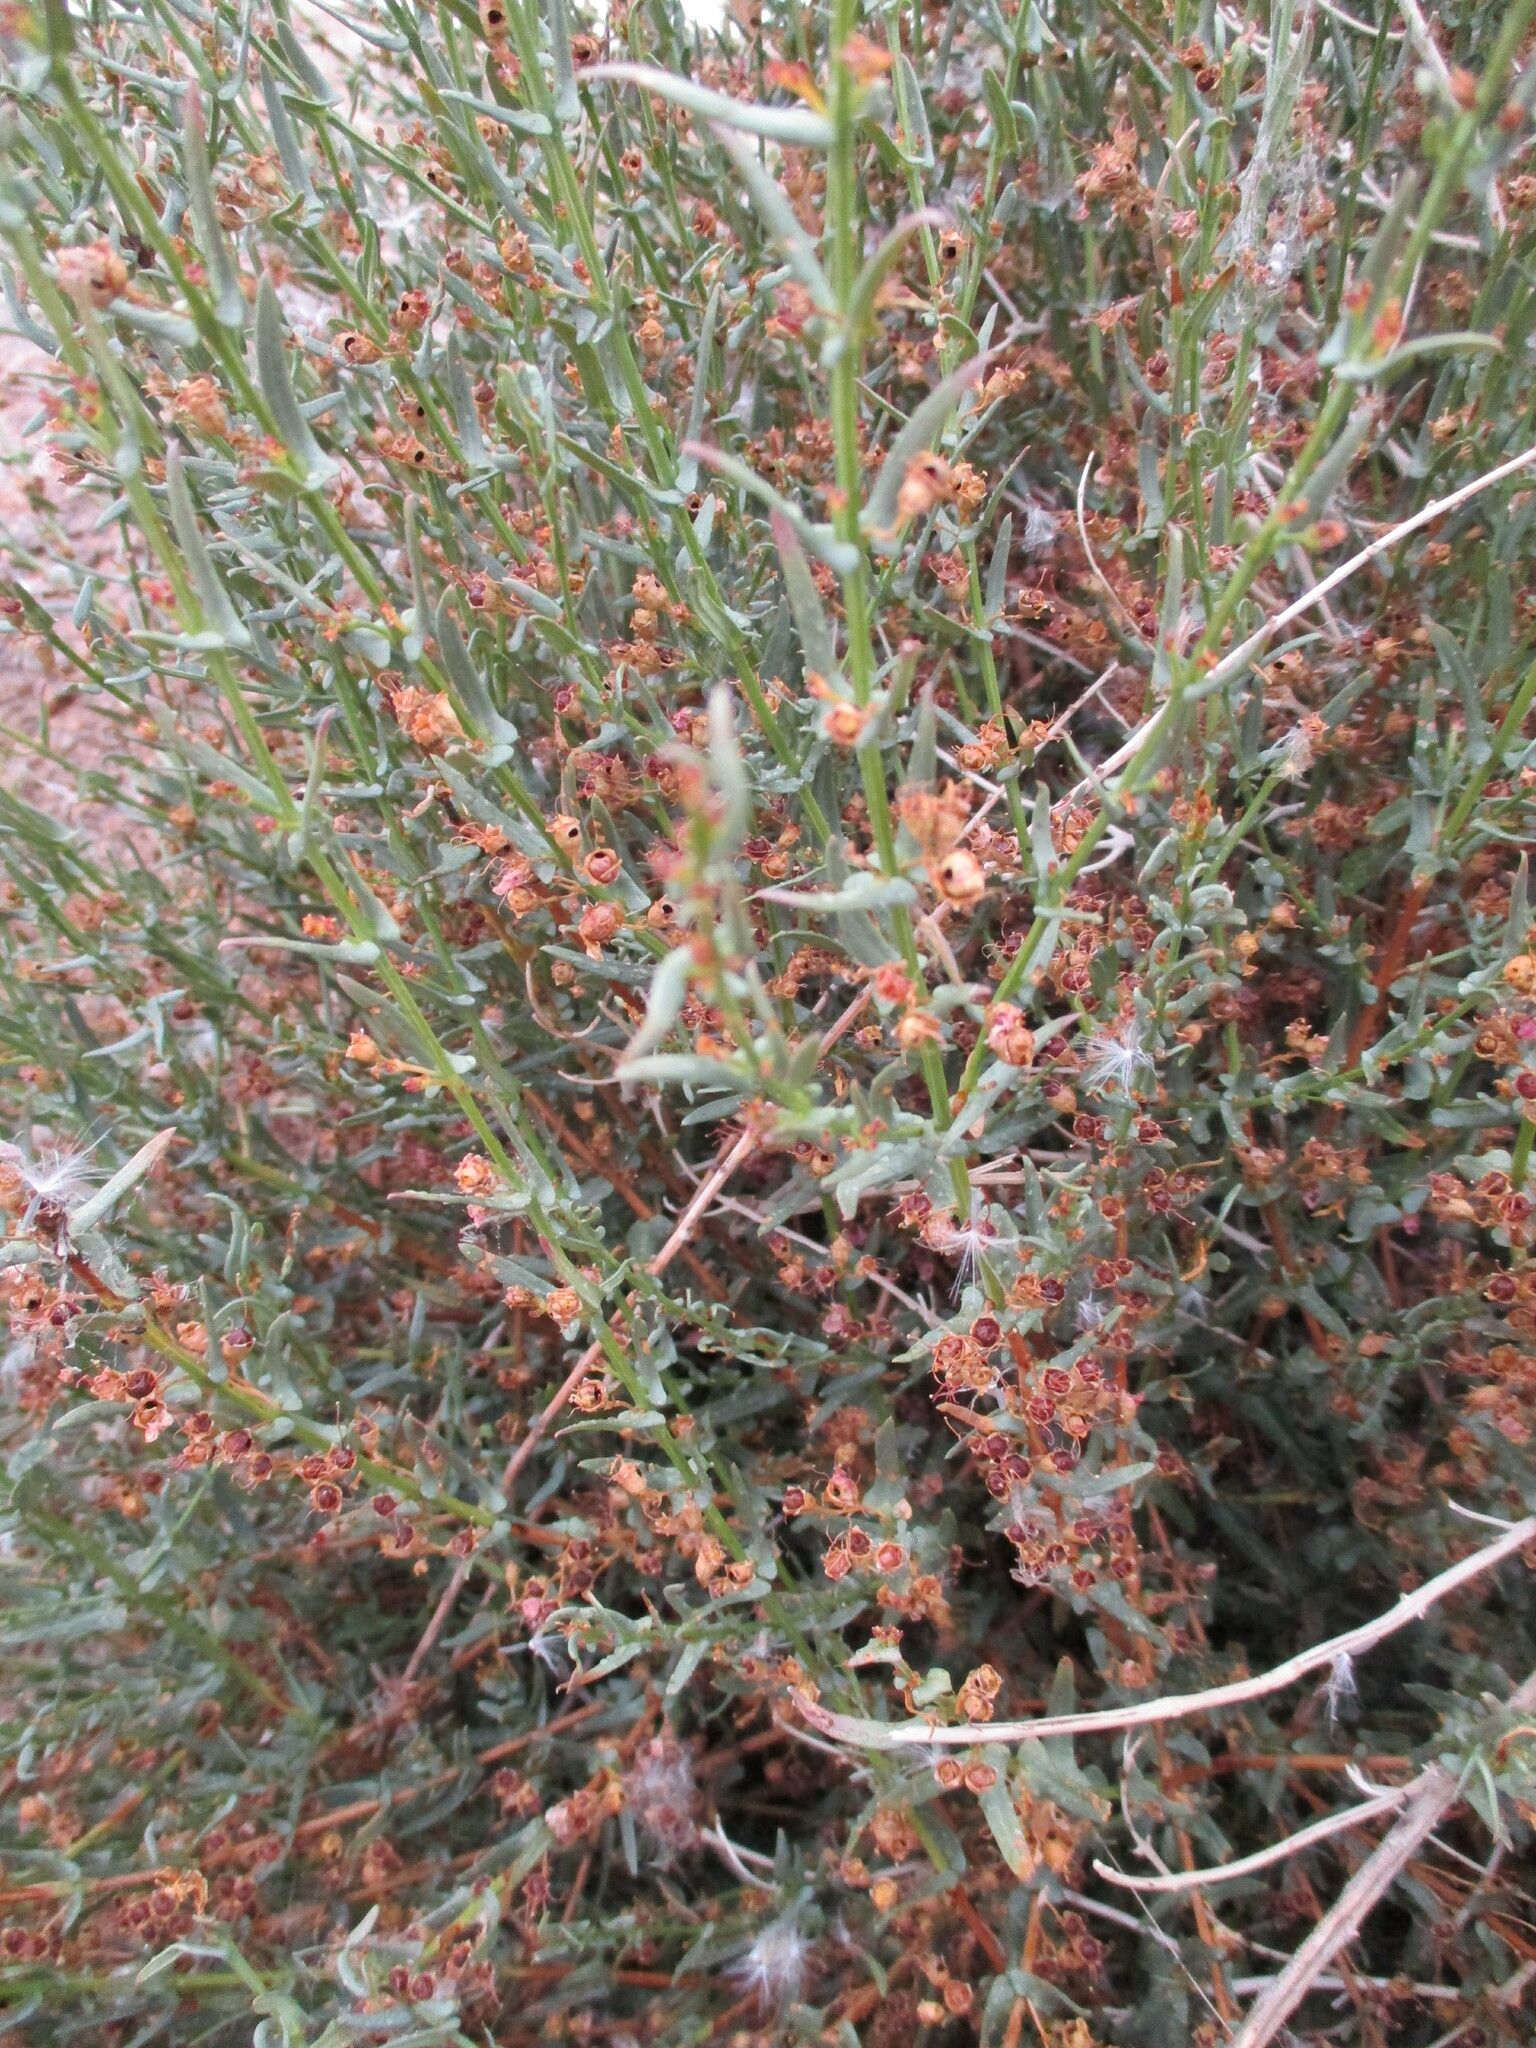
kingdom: Plantae
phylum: Tracheophyta
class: Magnoliopsida
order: Myrtales
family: Lythraceae
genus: Ammannia
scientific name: Ammannia luederitzii
